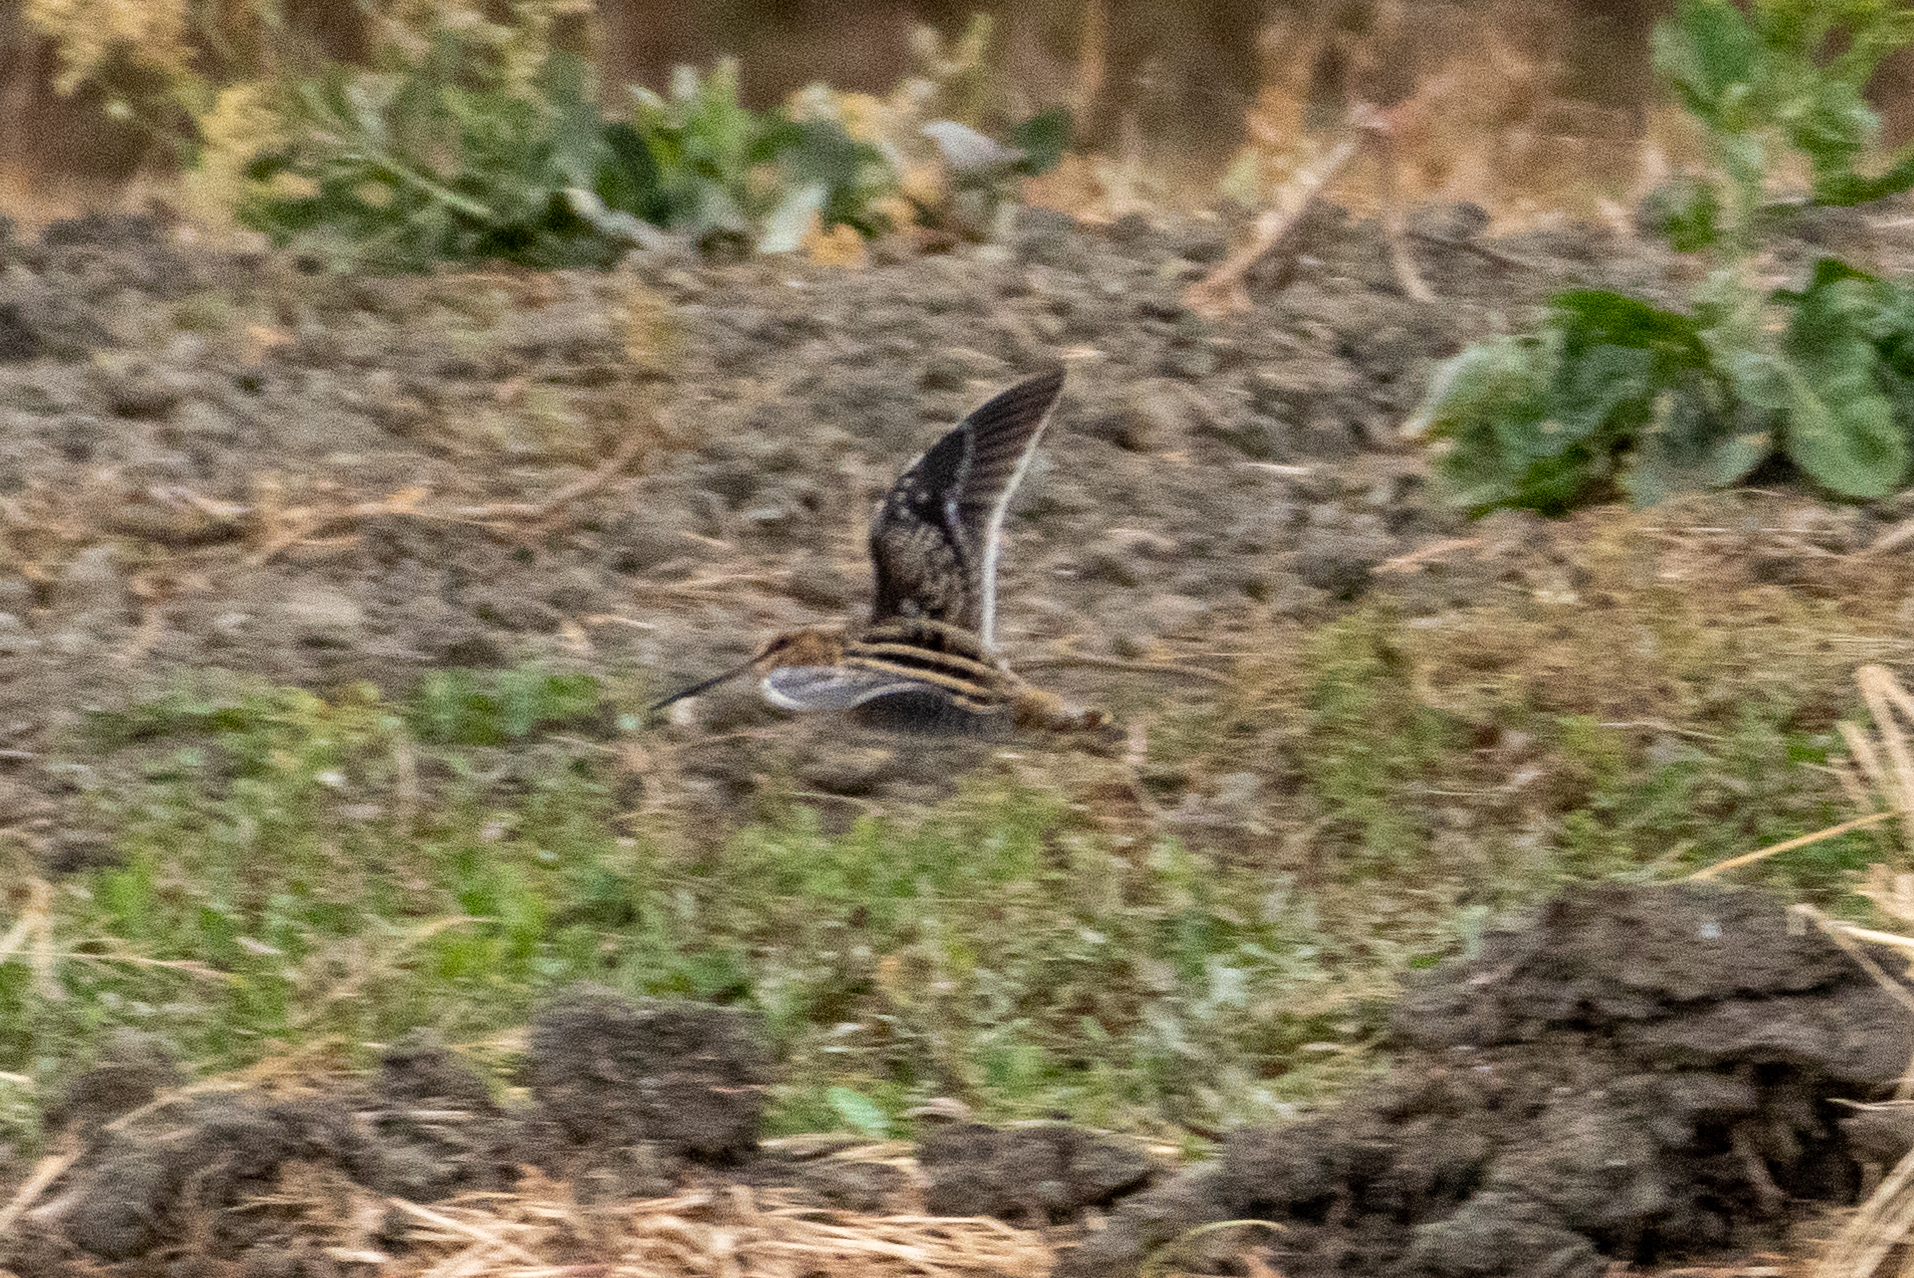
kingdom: Animalia
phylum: Chordata
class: Aves
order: Charadriiformes
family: Scolopacidae
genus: Gallinago
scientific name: Gallinago delicata
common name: Wilson's snipe
